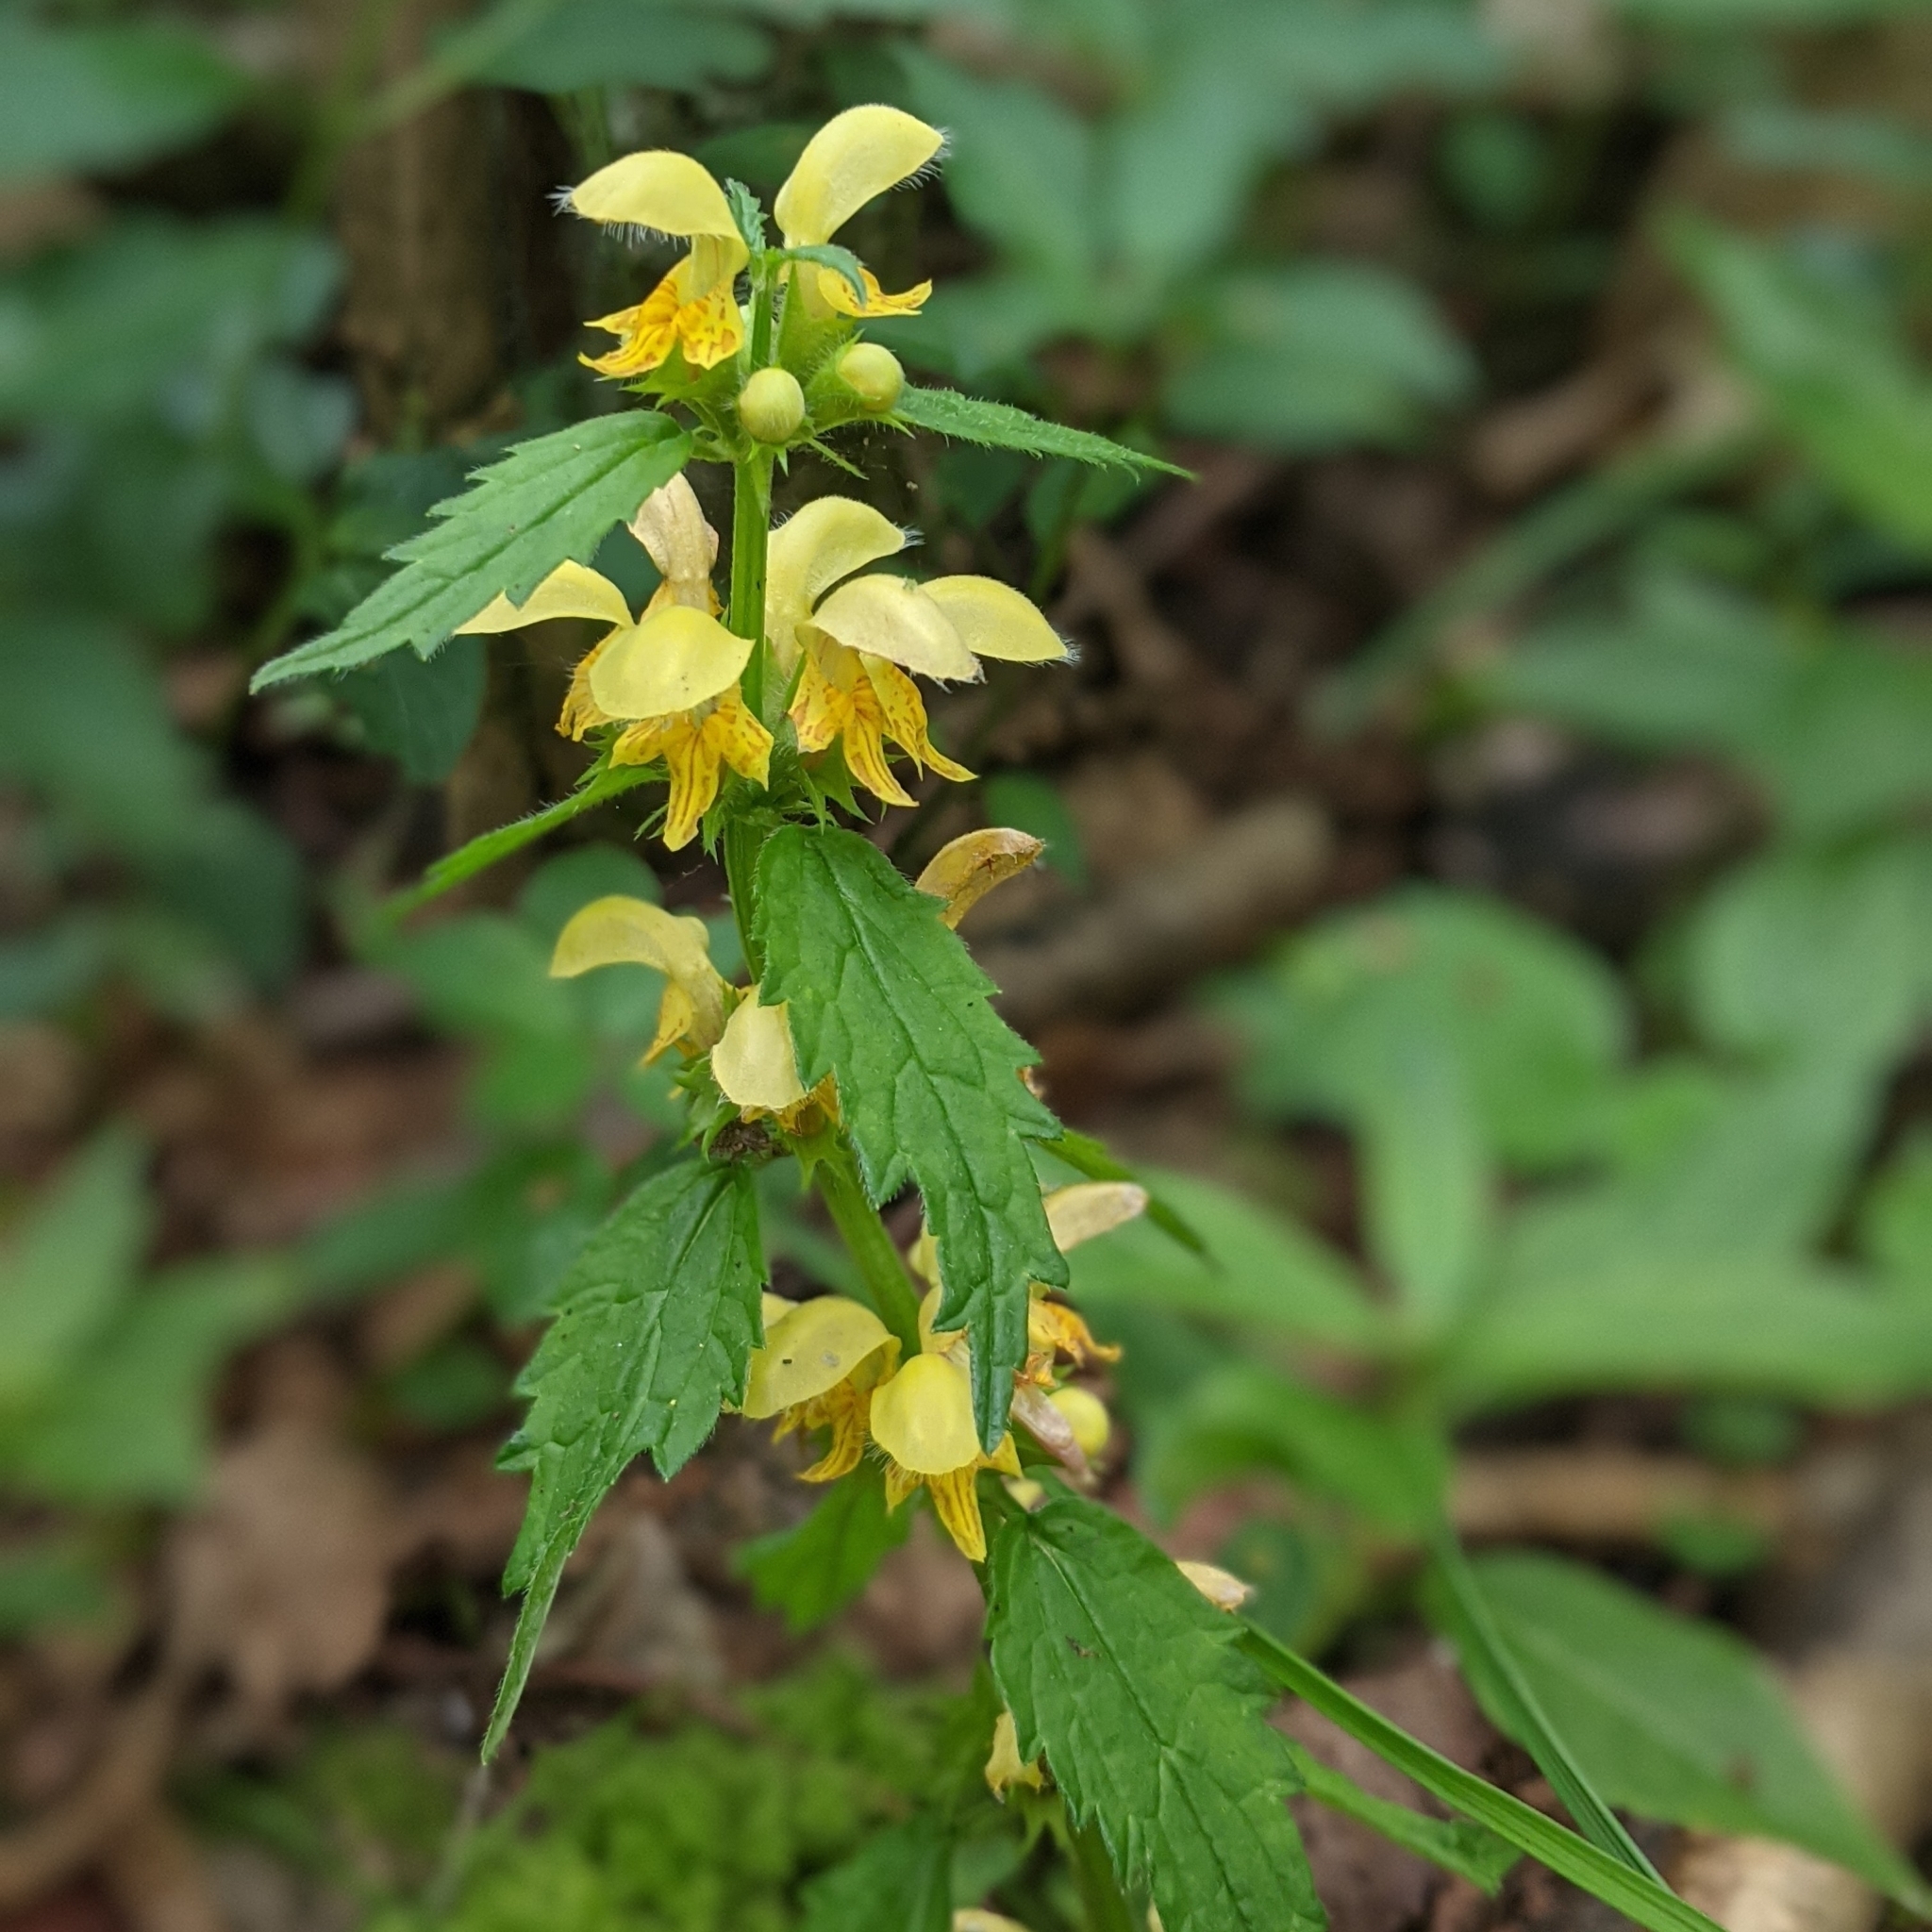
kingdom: Plantae
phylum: Tracheophyta
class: Magnoliopsida
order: Lamiales
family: Lamiaceae
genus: Lamium
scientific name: Lamium galeobdolon
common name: Yellow archangel
